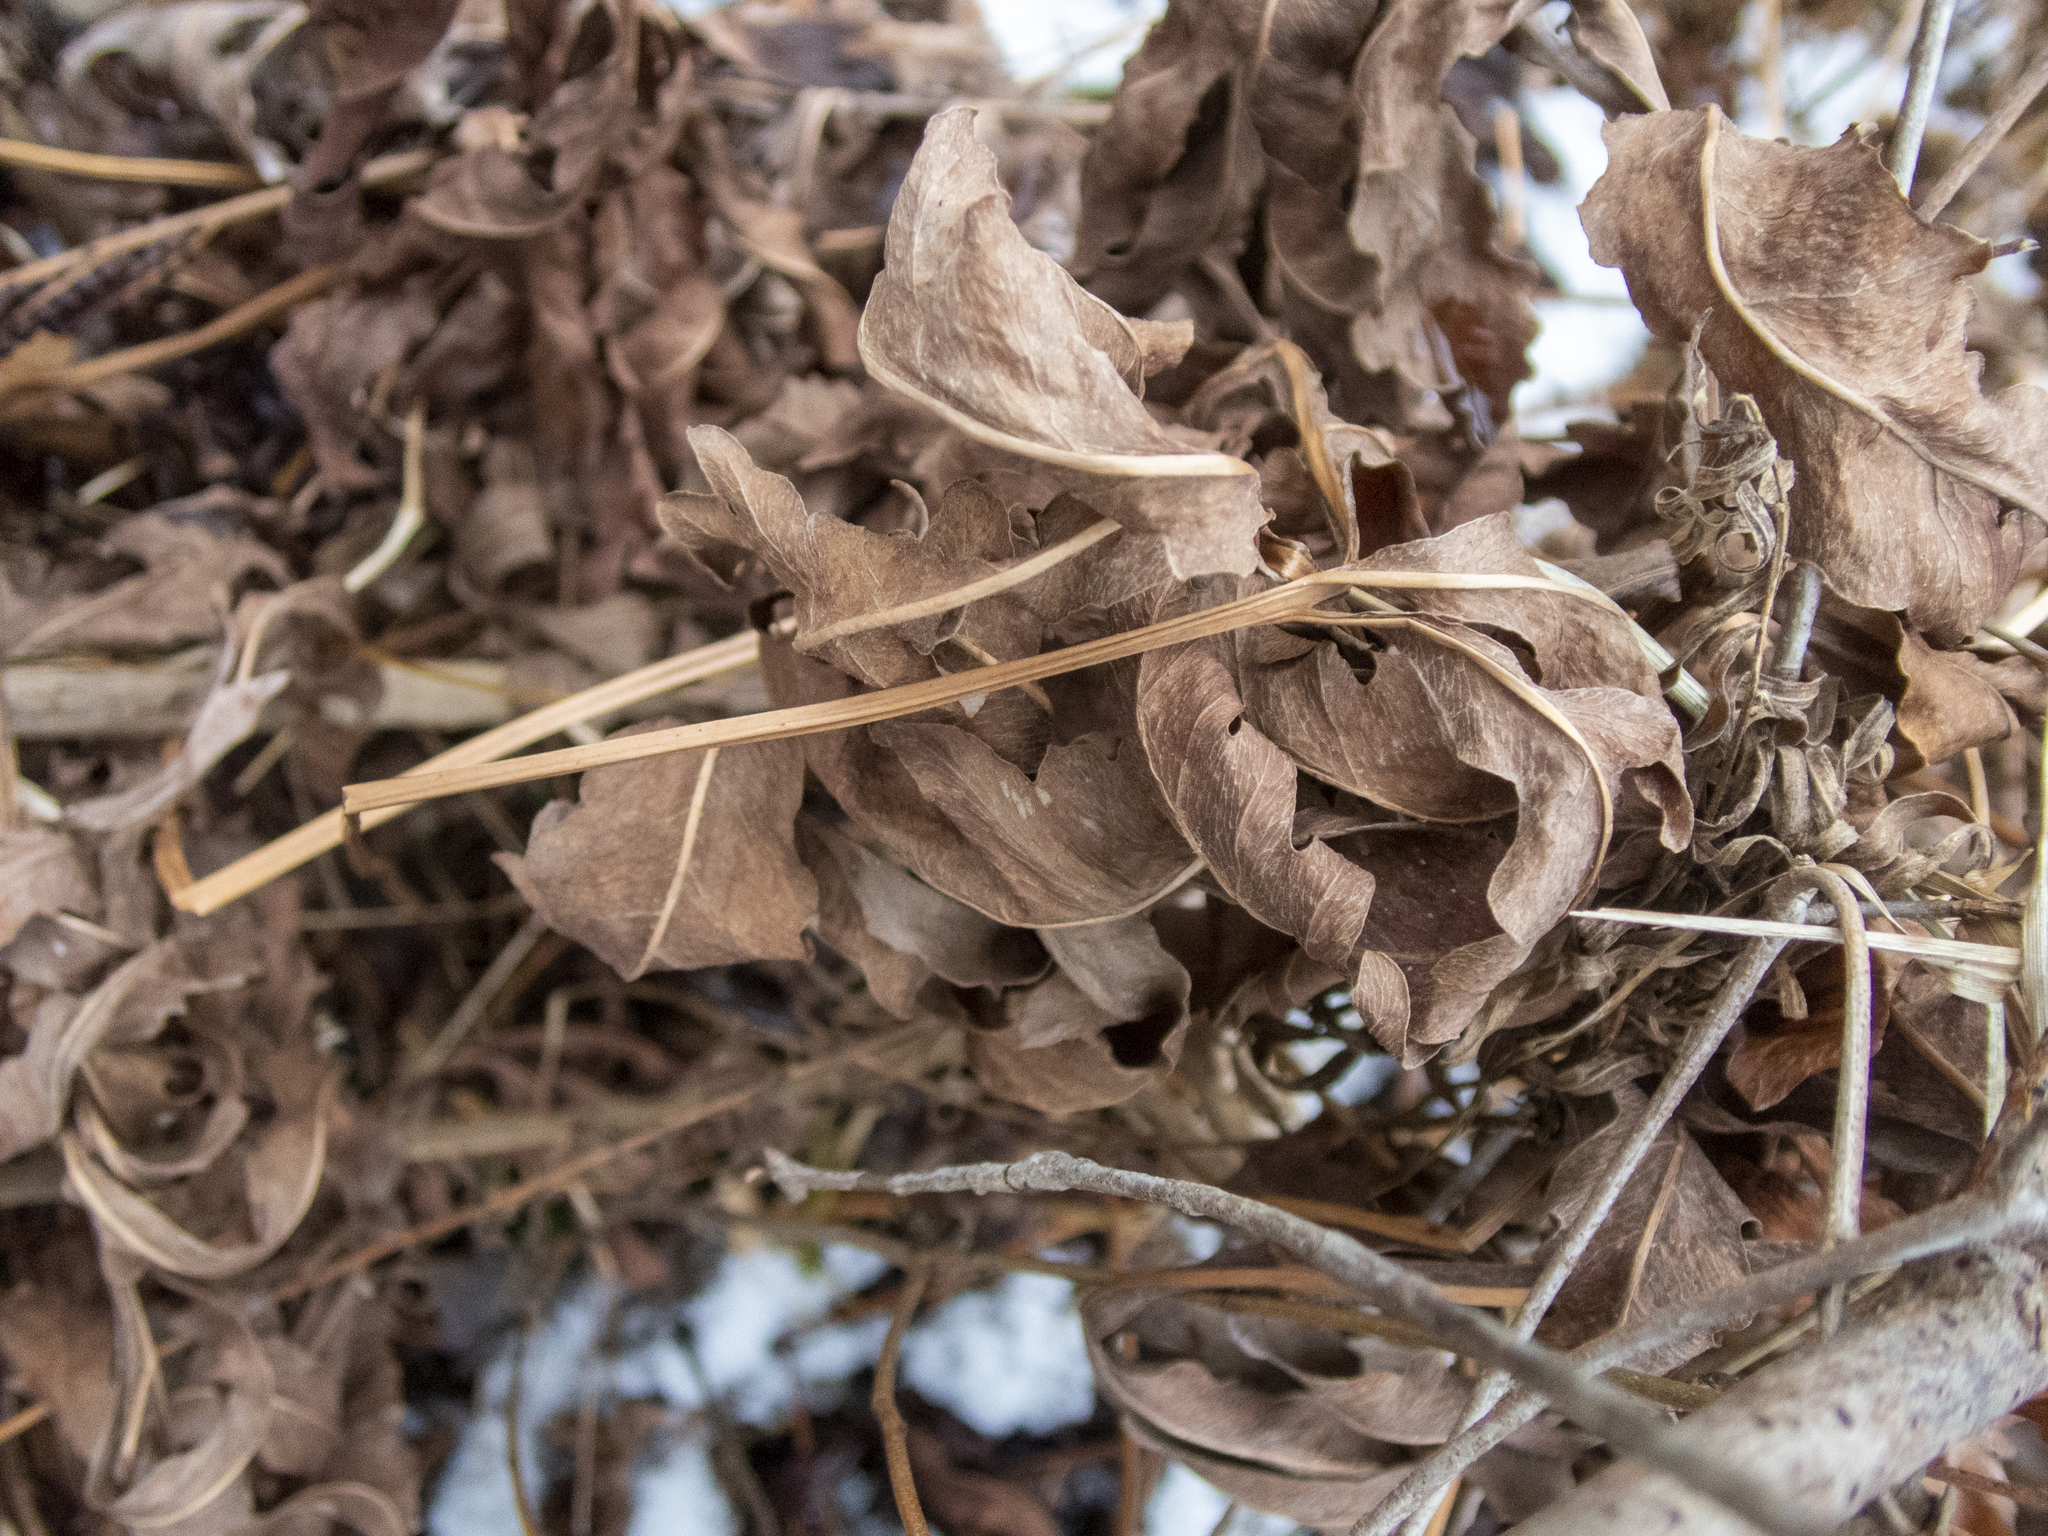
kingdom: Plantae
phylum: Tracheophyta
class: Polypodiopsida
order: Polypodiales
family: Onocleaceae
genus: Onoclea
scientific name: Onoclea sensibilis
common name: Sensitive fern
